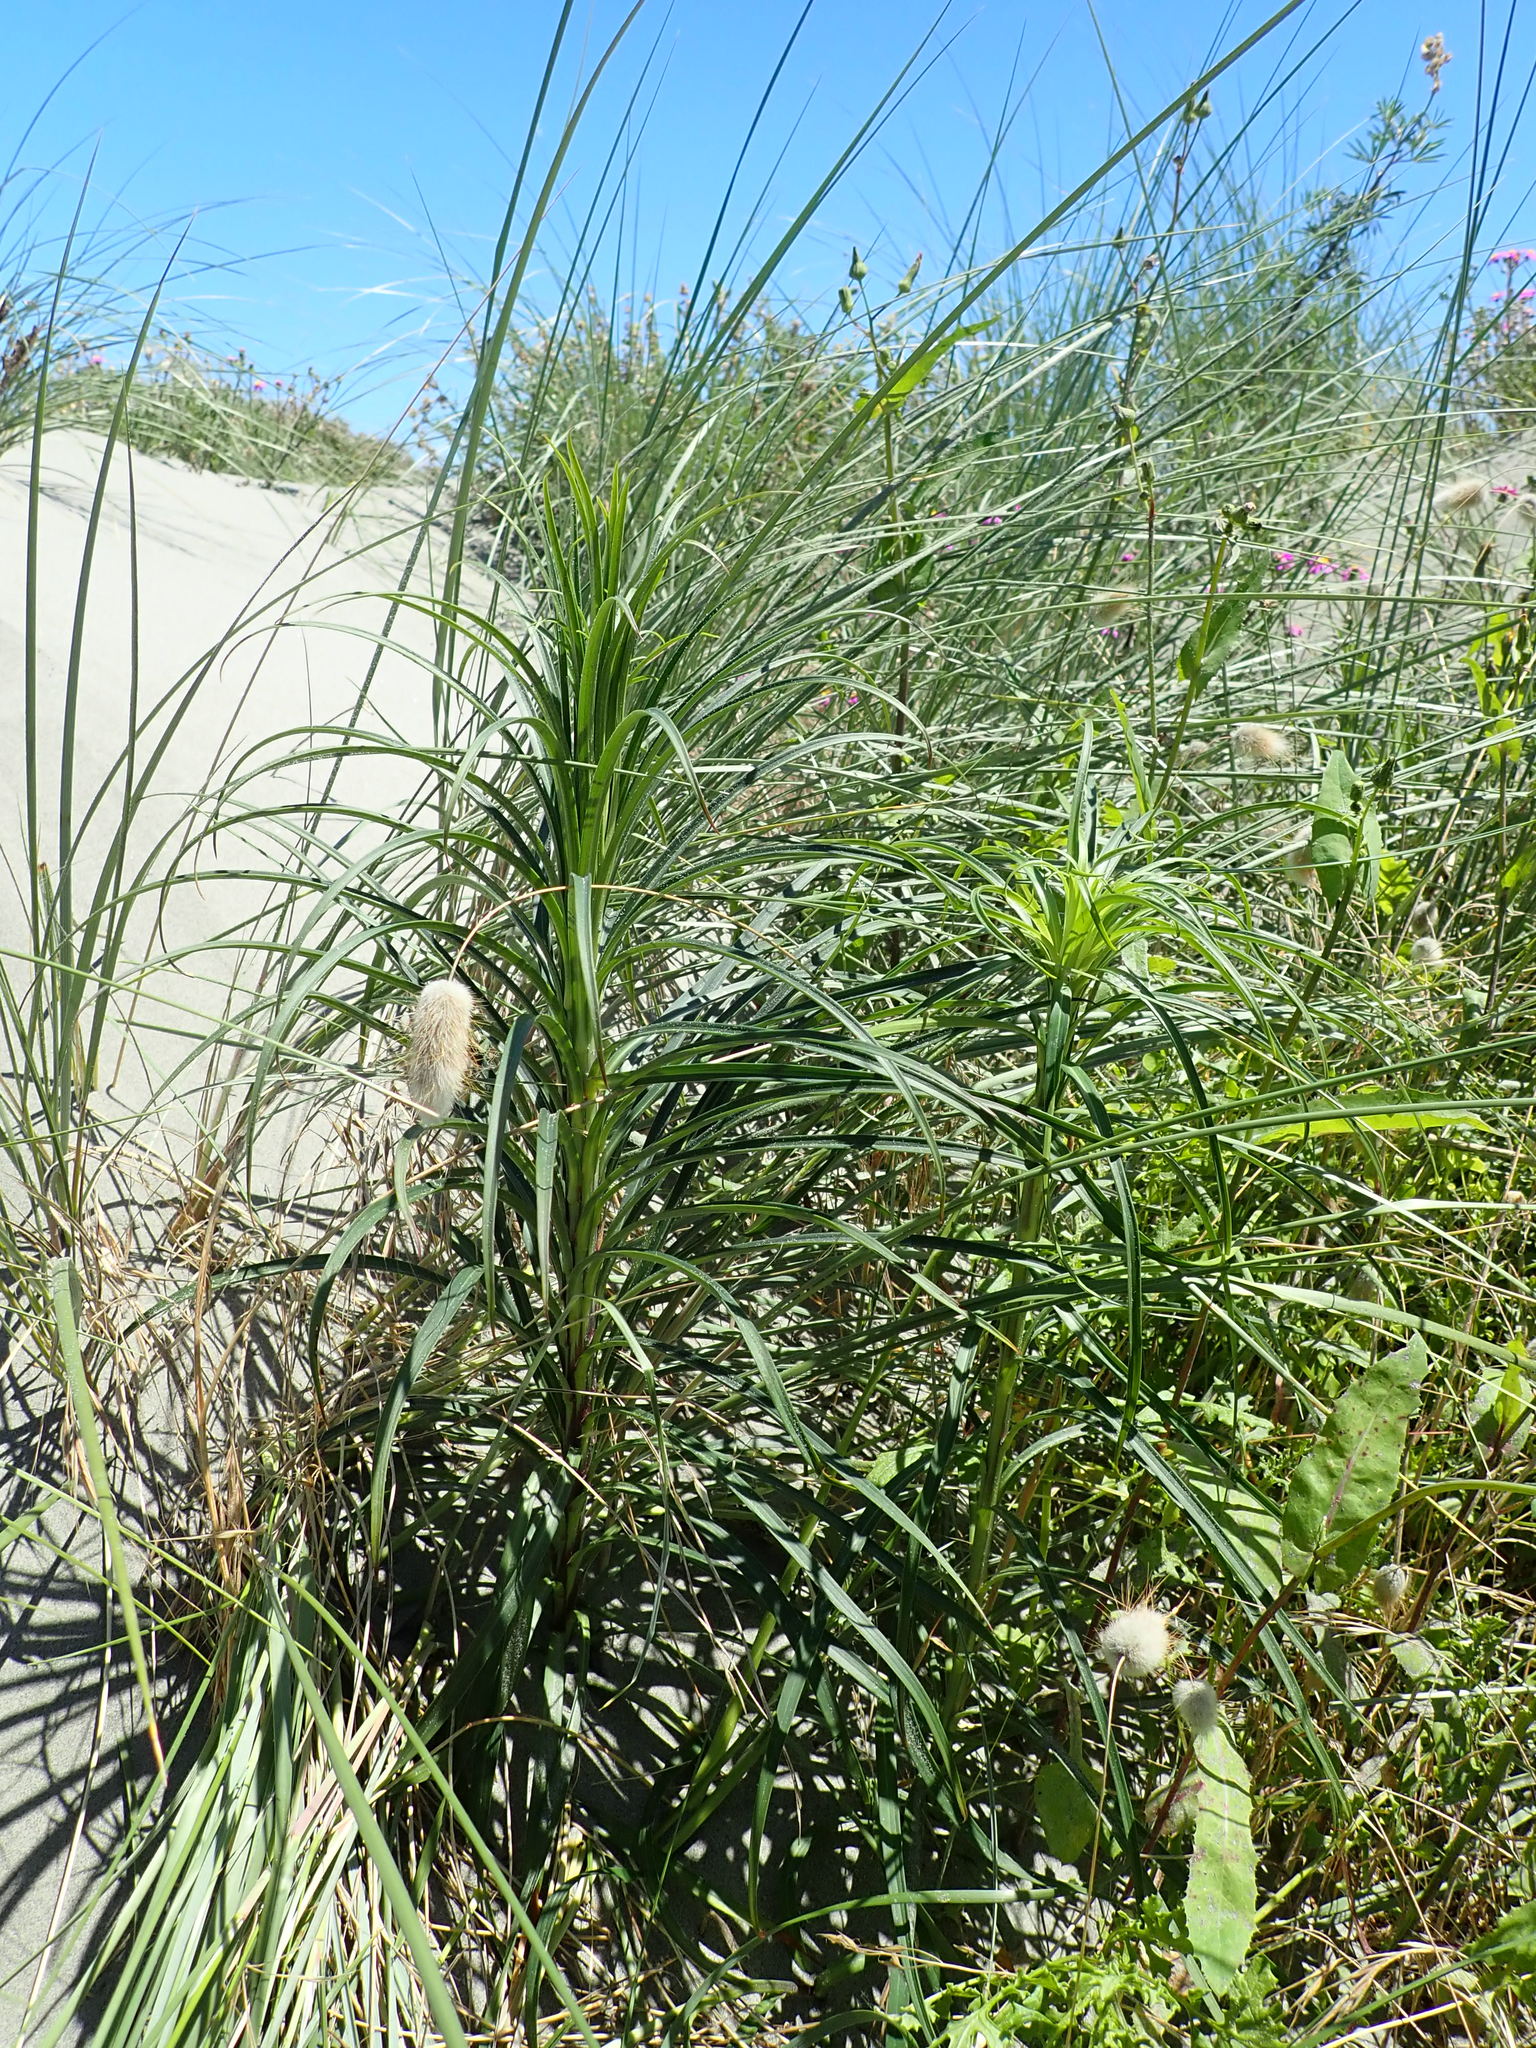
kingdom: Plantae
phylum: Tracheophyta
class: Liliopsida
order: Liliales
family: Liliaceae
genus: Lilium
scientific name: Lilium formosanum
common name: Formosa lily
